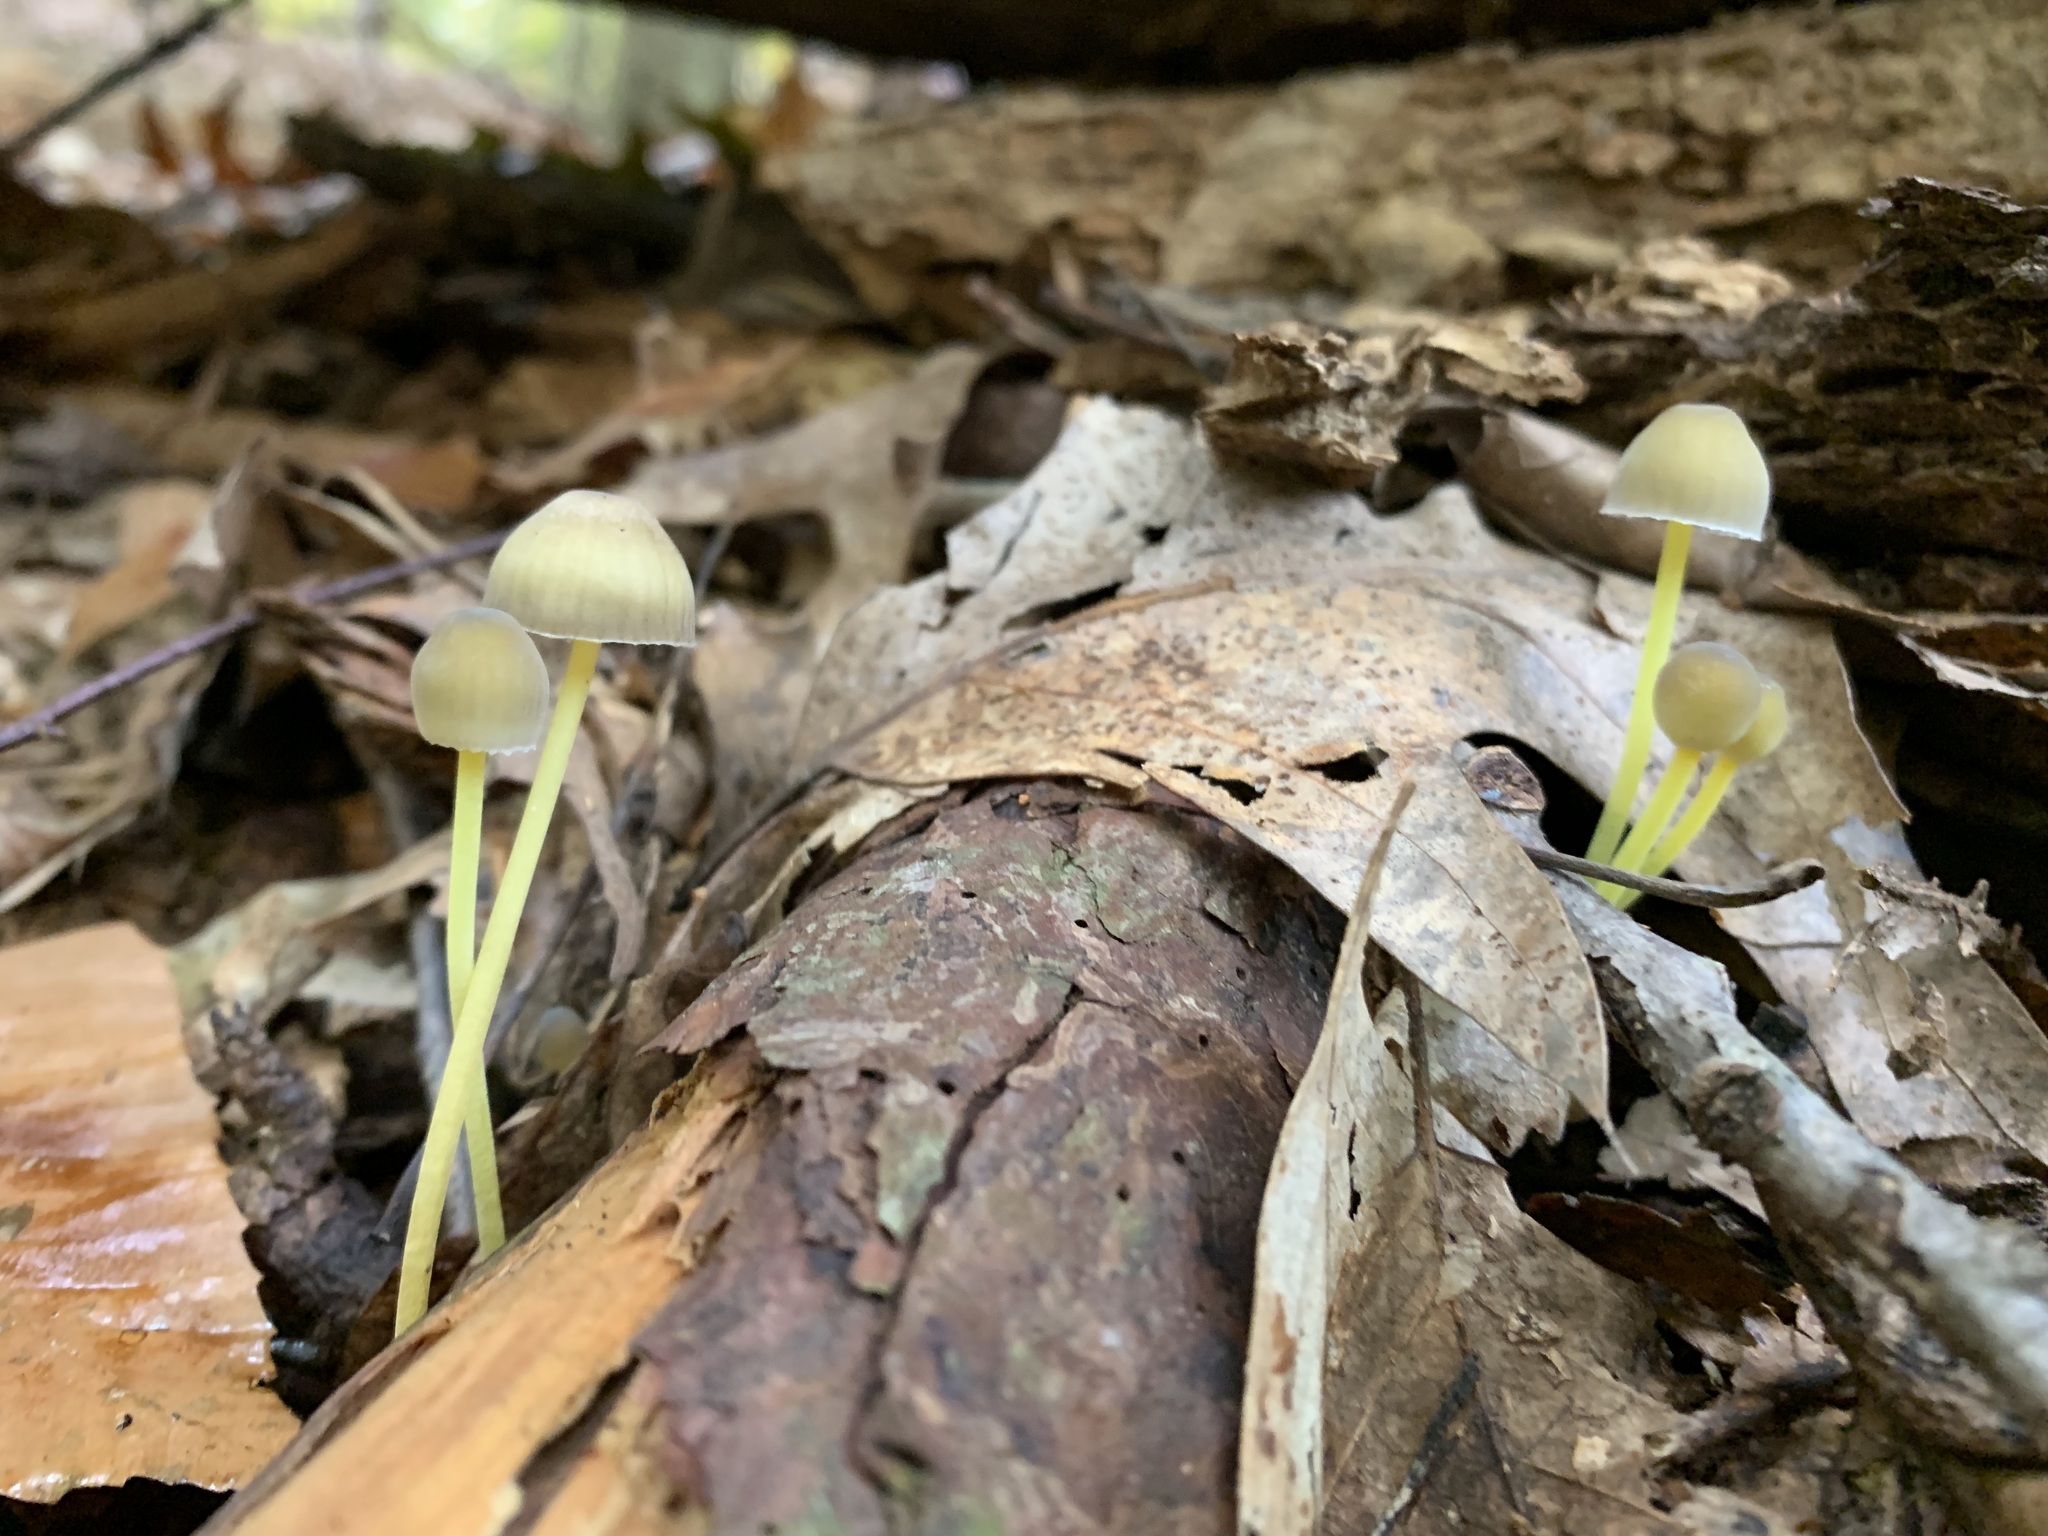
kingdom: Fungi
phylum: Basidiomycota
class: Agaricomycetes
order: Agaricales
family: Mycenaceae
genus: Mycena
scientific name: Mycena epipterygia
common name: Yellowleg bonnet
